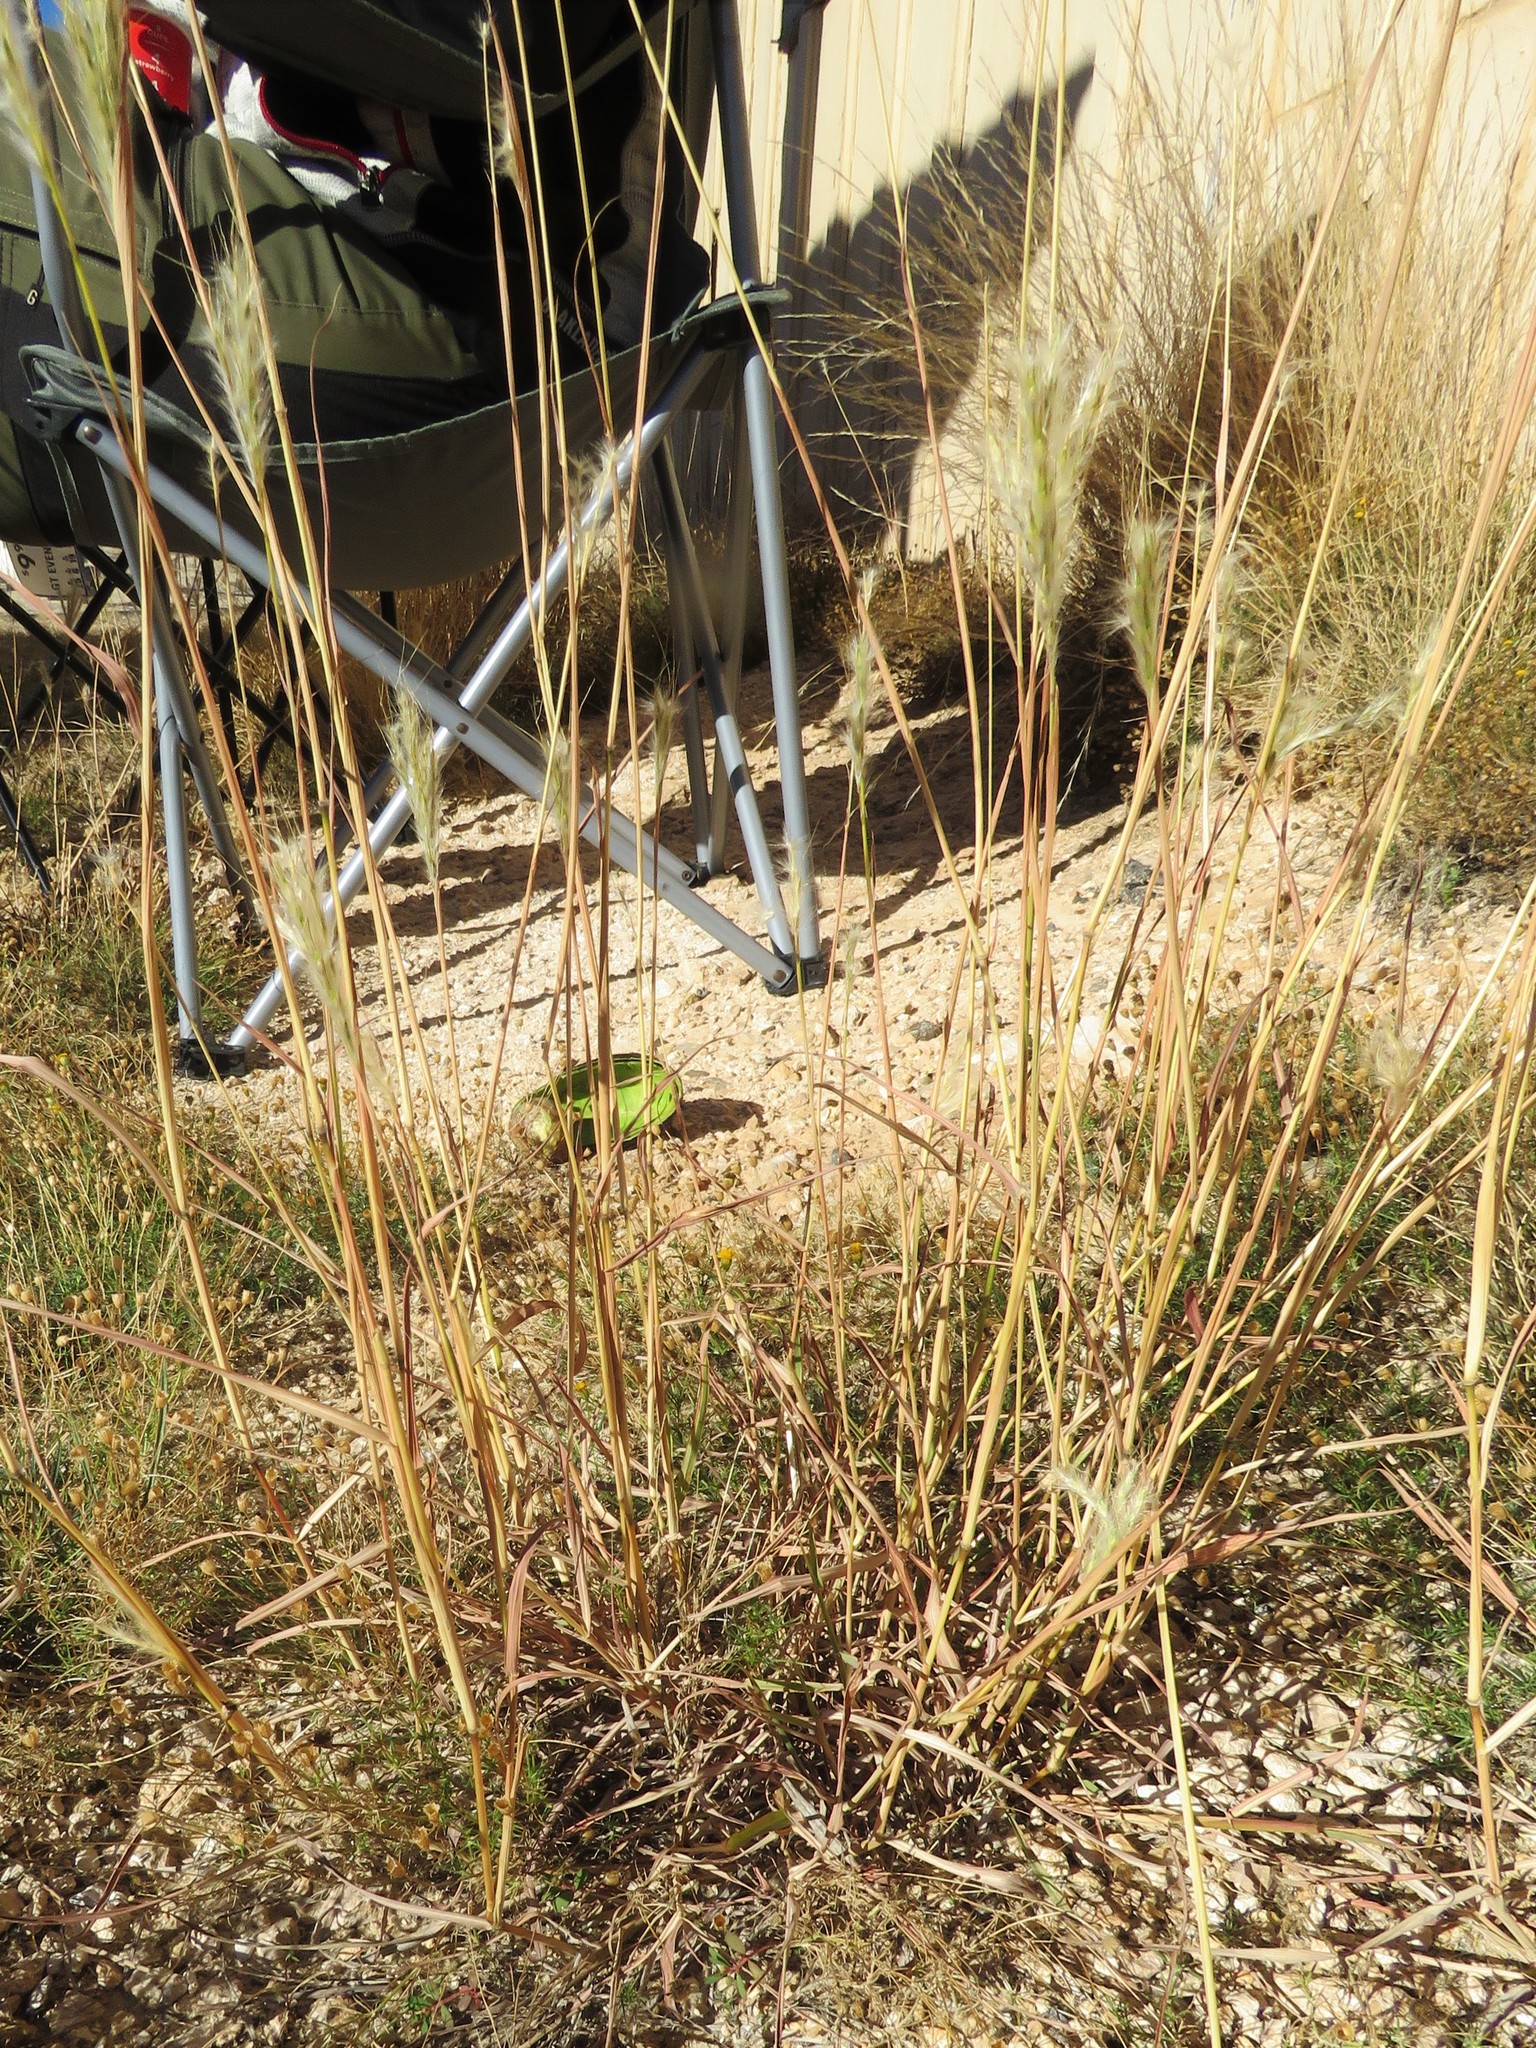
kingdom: Plantae
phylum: Tracheophyta
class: Liliopsida
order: Poales
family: Poaceae
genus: Bothriochloa
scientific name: Bothriochloa barbinodis
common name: Cane bluestem
